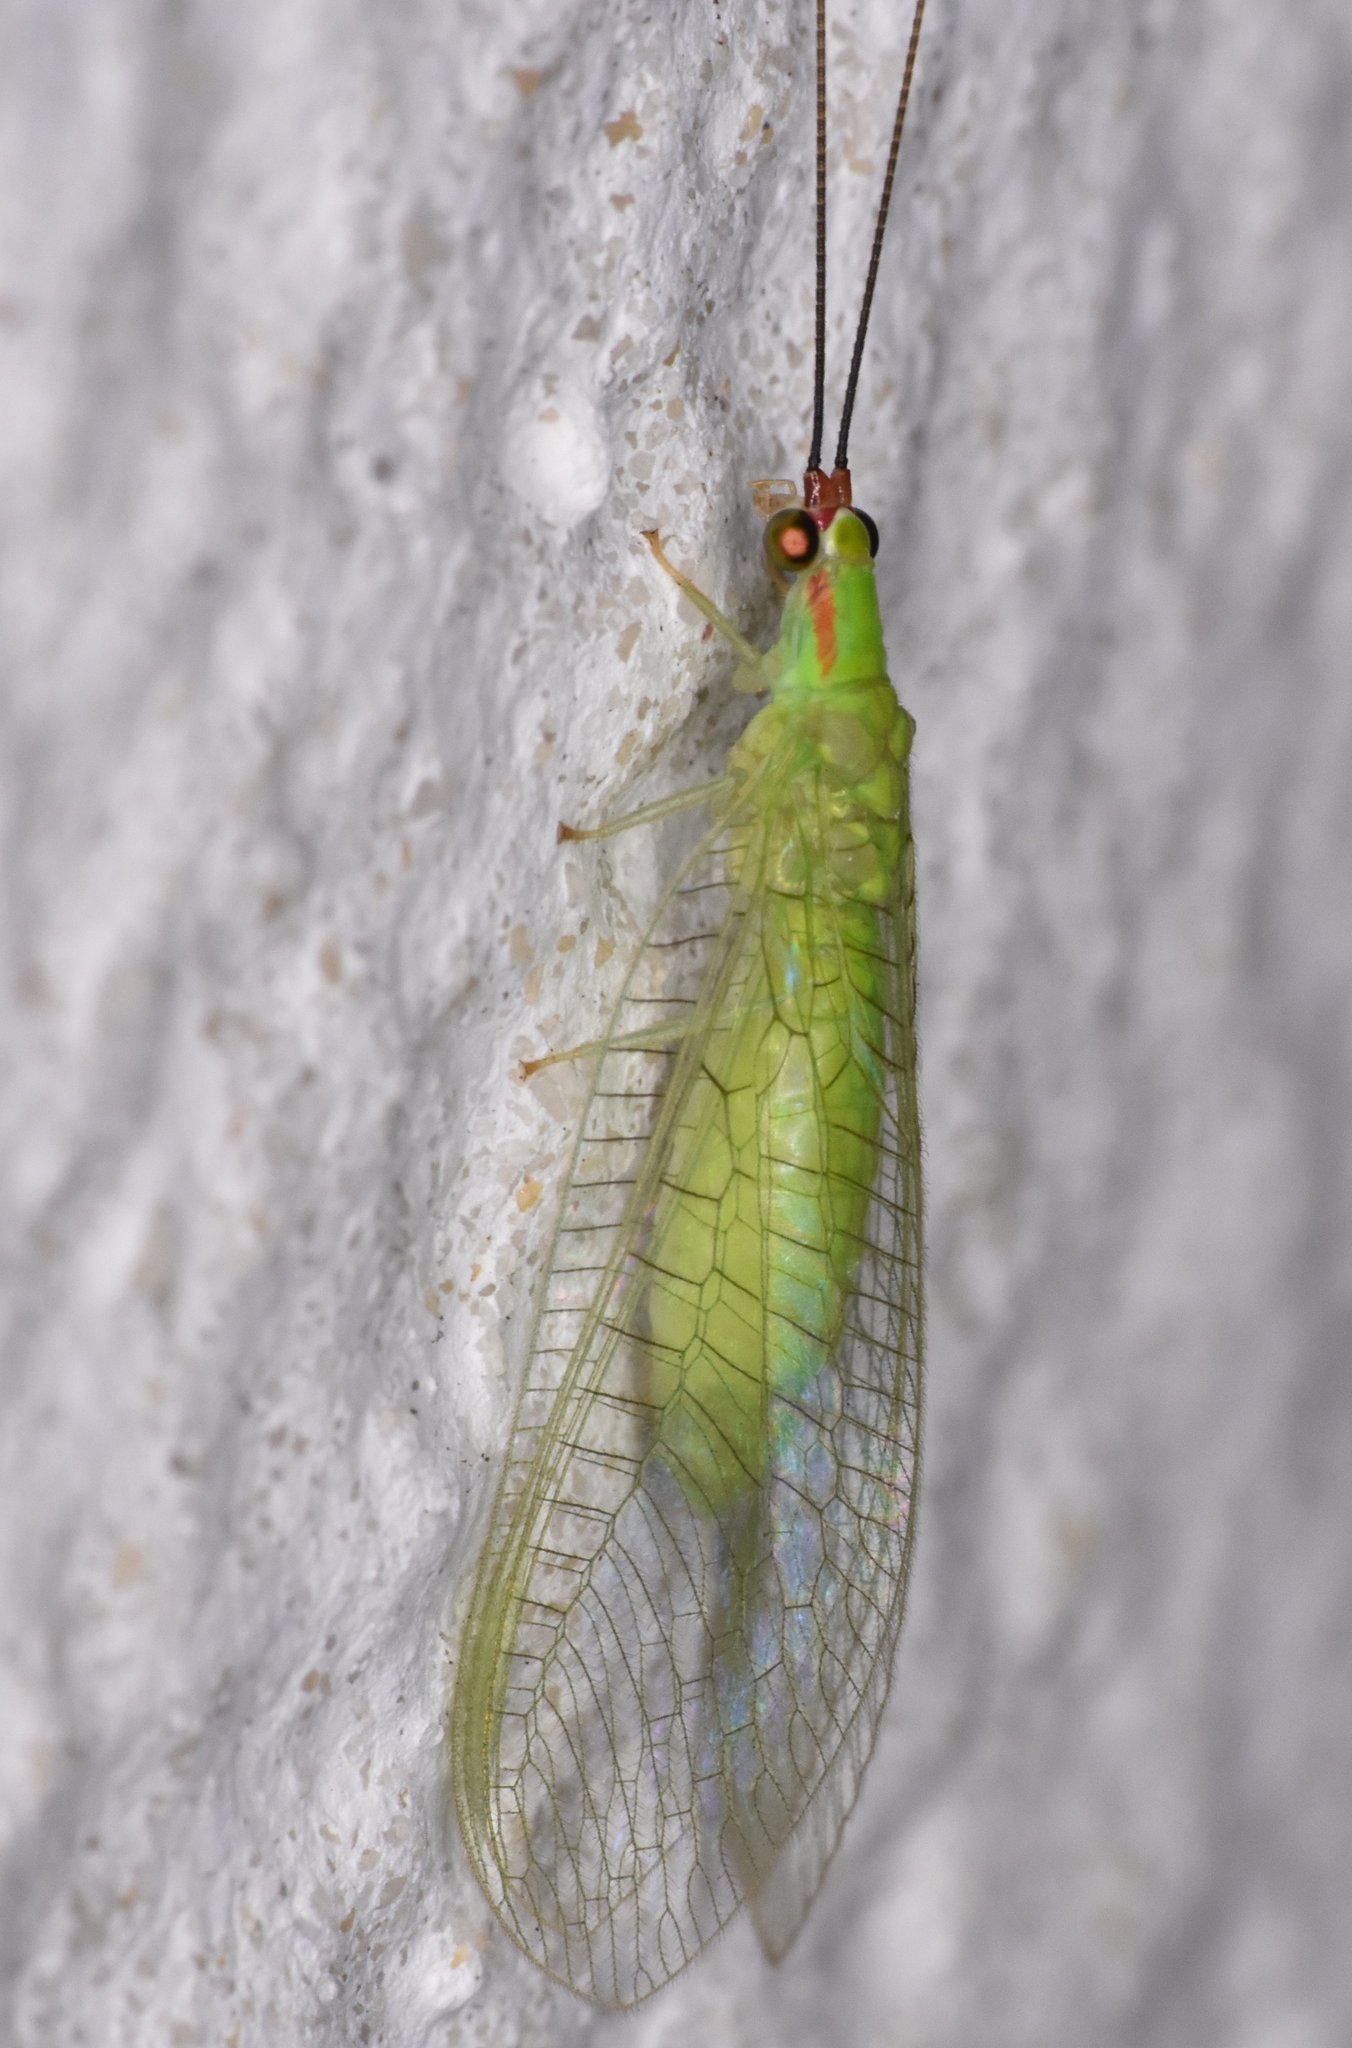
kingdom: Animalia
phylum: Arthropoda
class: Insecta
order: Neuroptera
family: Chrysopidae
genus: Ceraeochrysa
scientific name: Ceraeochrysa smithi
